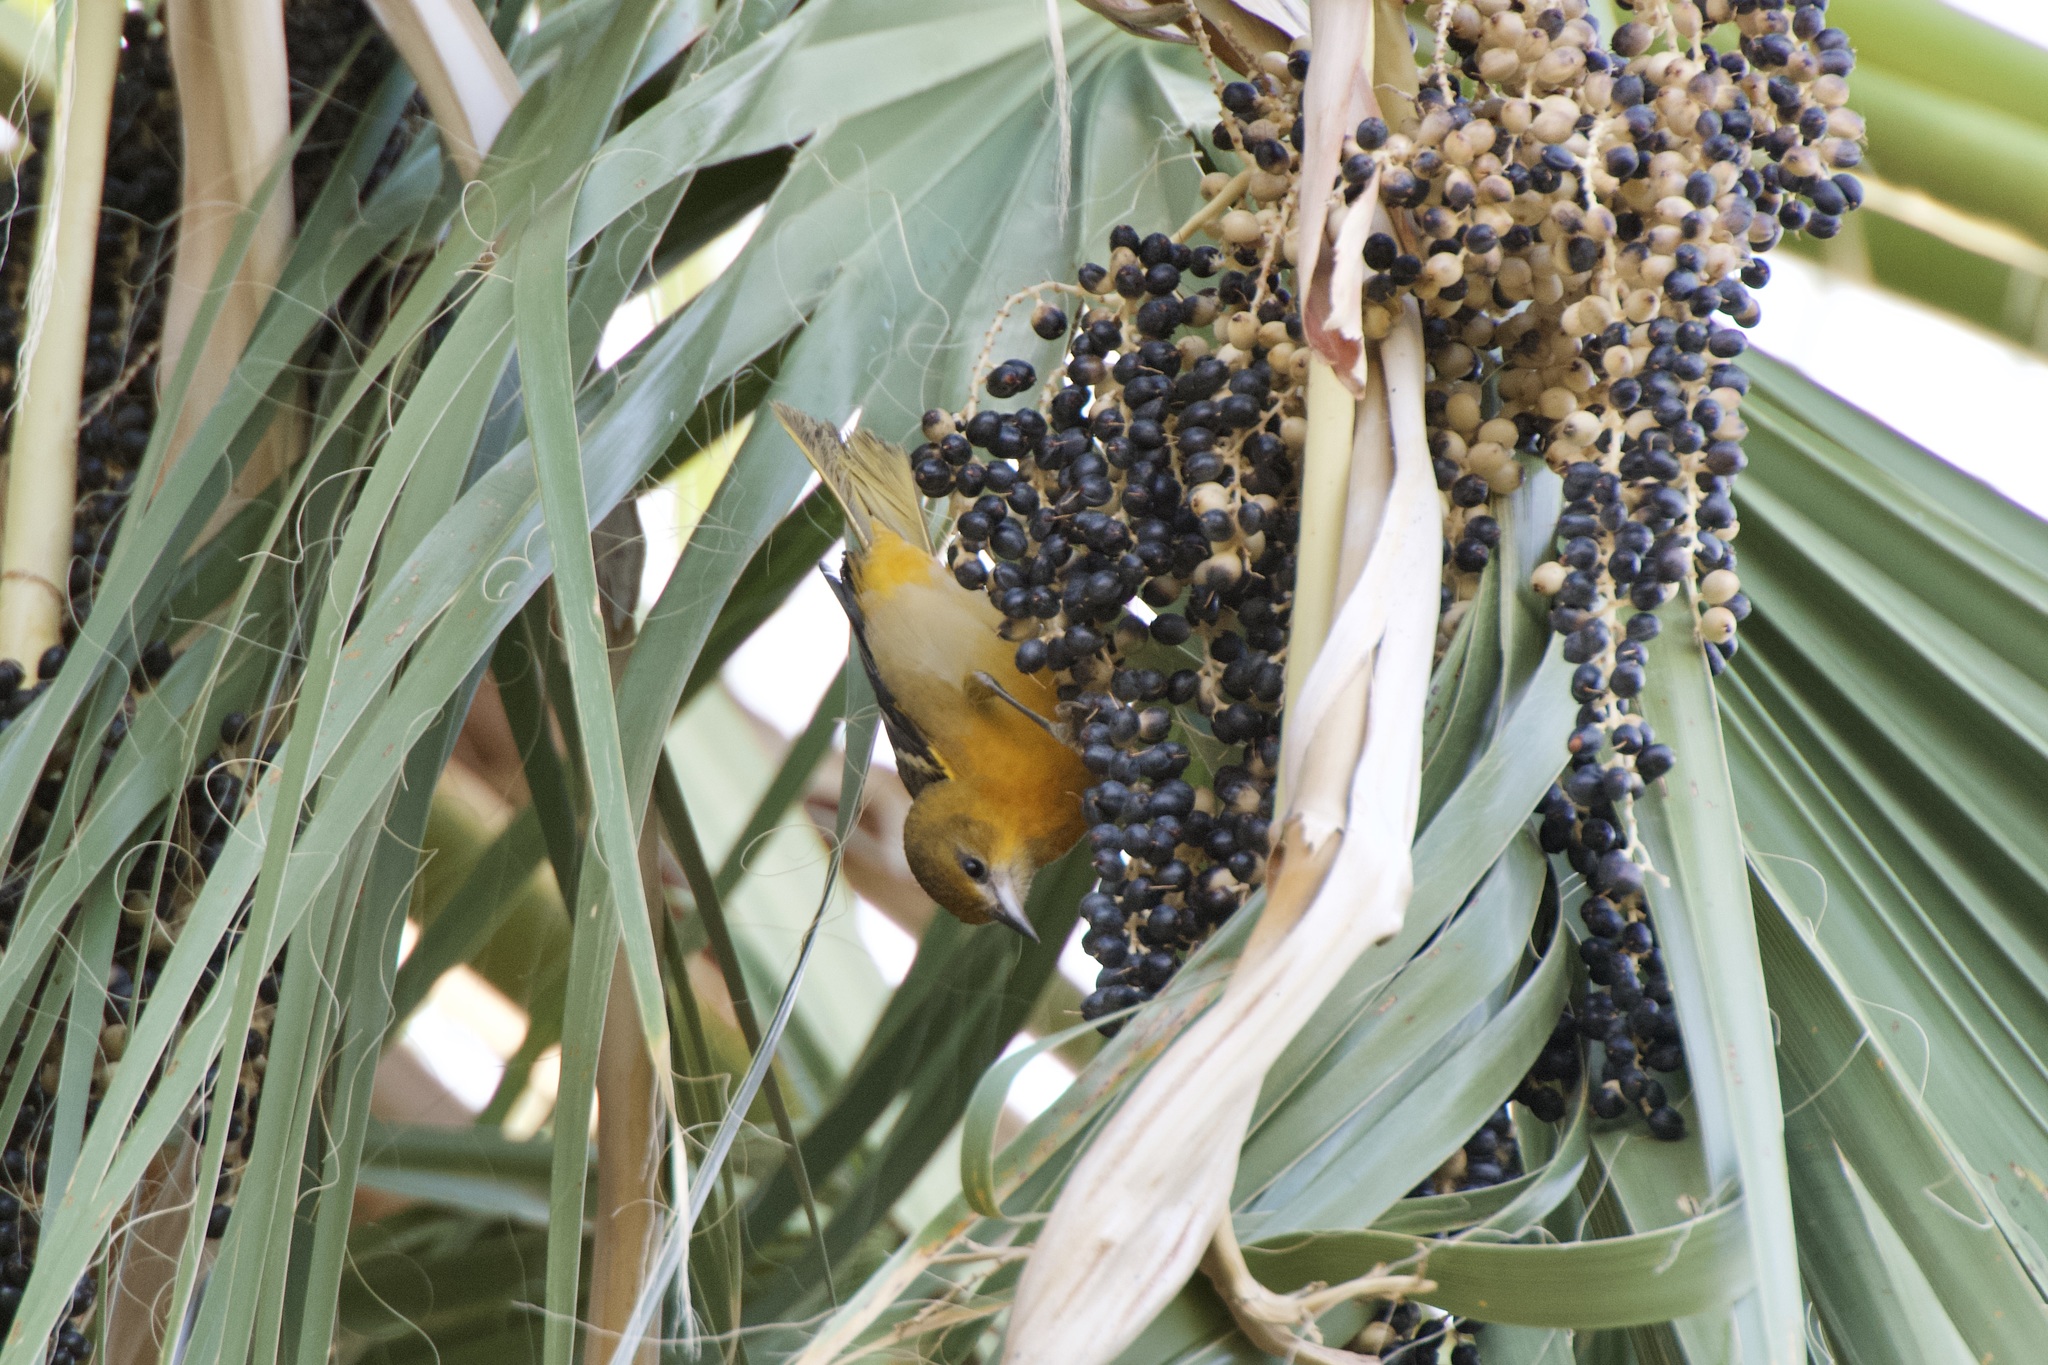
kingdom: Animalia
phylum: Chordata
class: Aves
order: Passeriformes
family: Icteridae
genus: Icterus
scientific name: Icterus galbula
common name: Baltimore oriole
